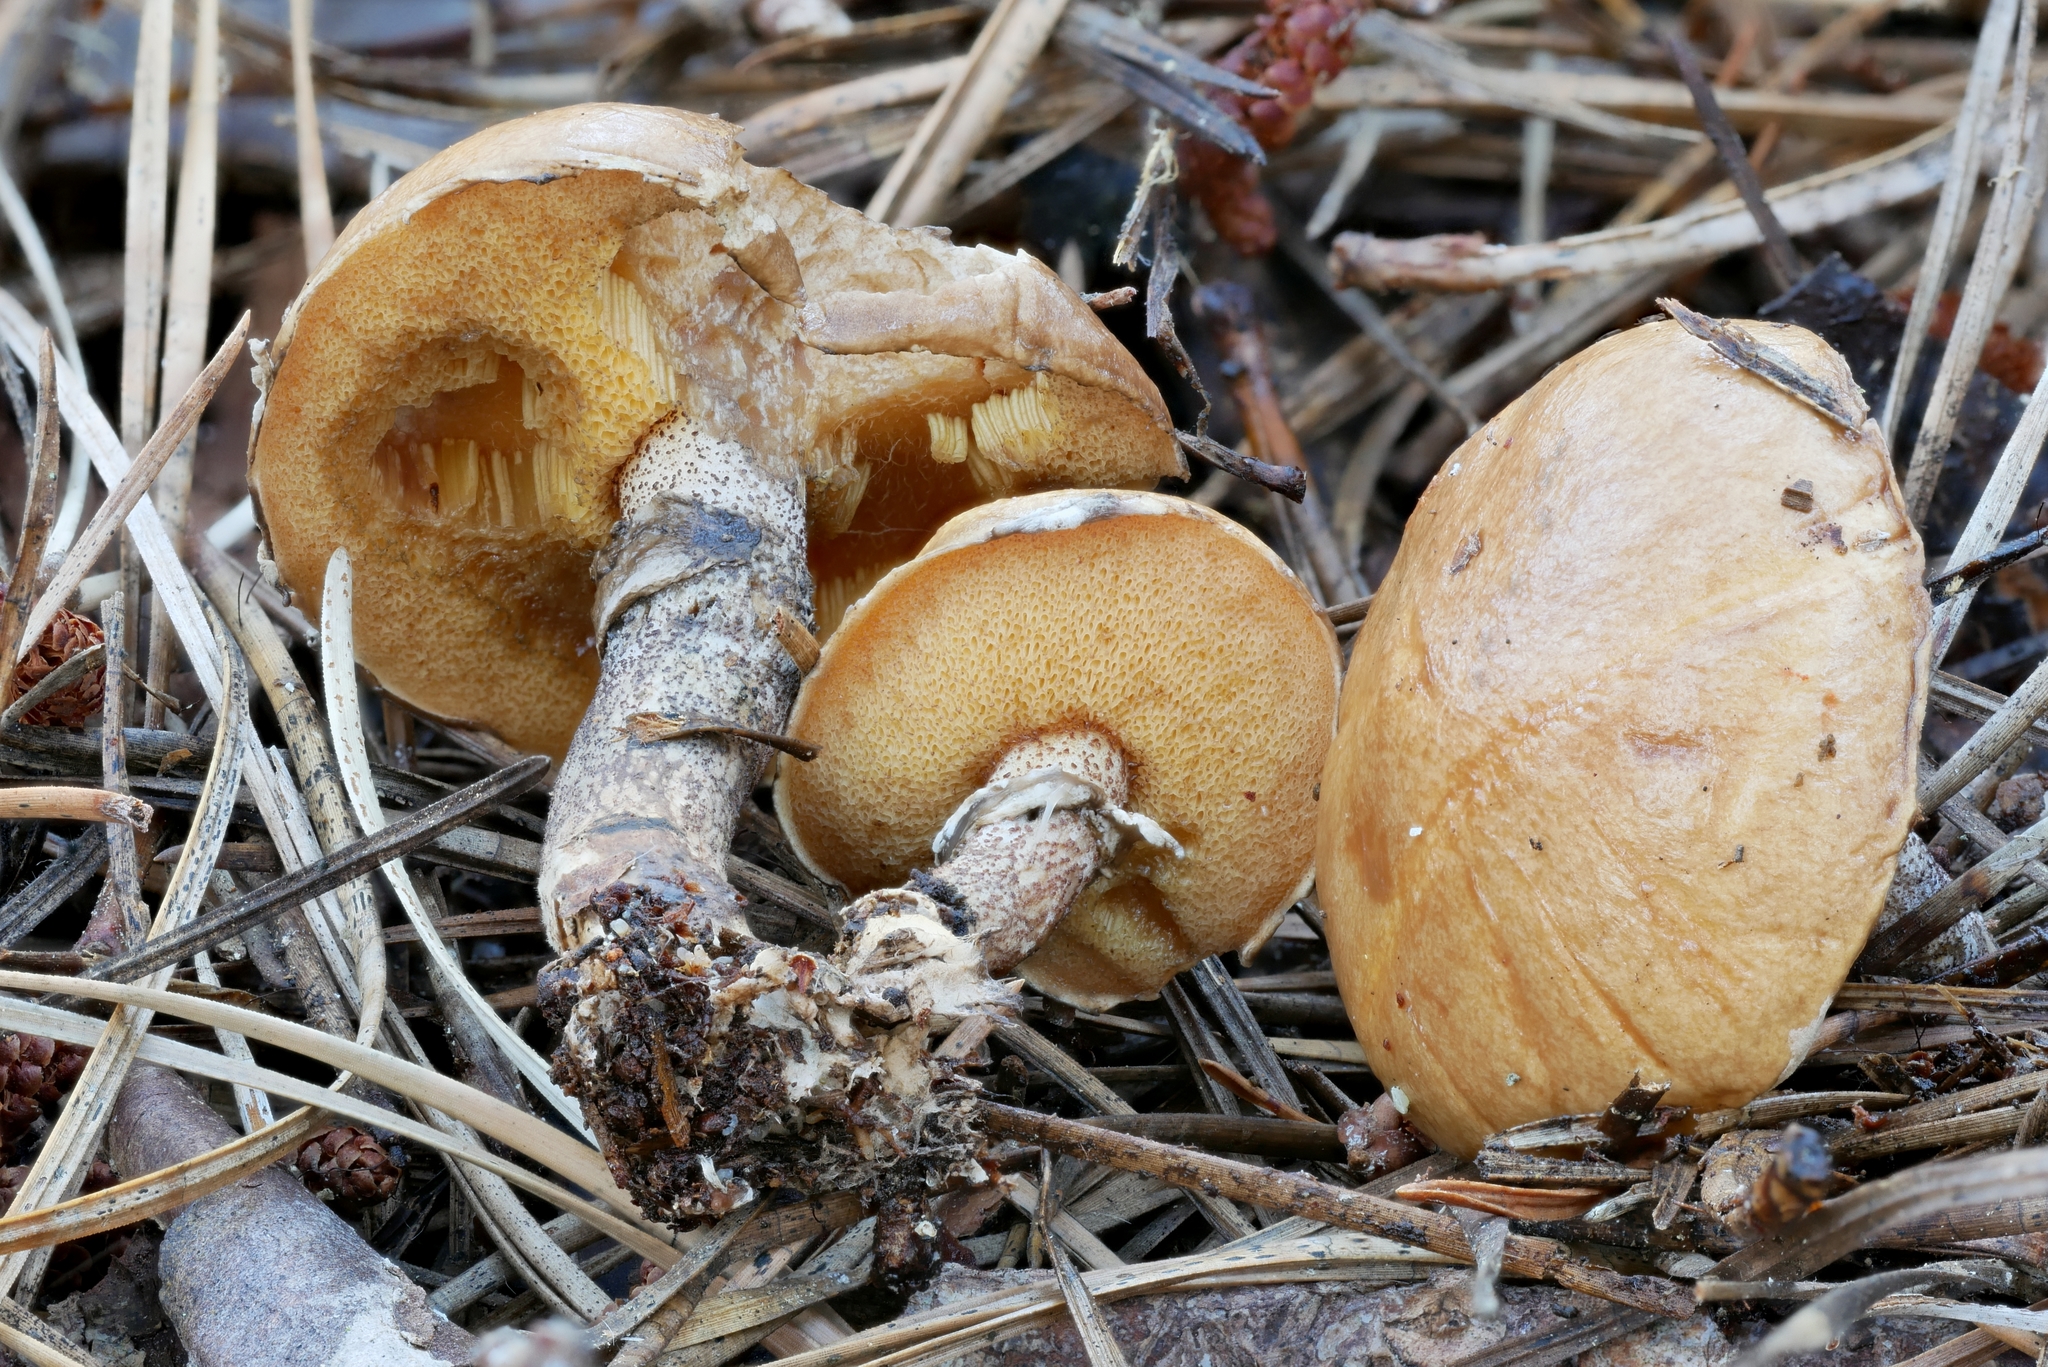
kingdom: Fungi
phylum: Basidiomycota
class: Agaricomycetes
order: Boletales
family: Suillaceae
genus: Suillus
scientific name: Suillus salmonicolor
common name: Slippery jill
